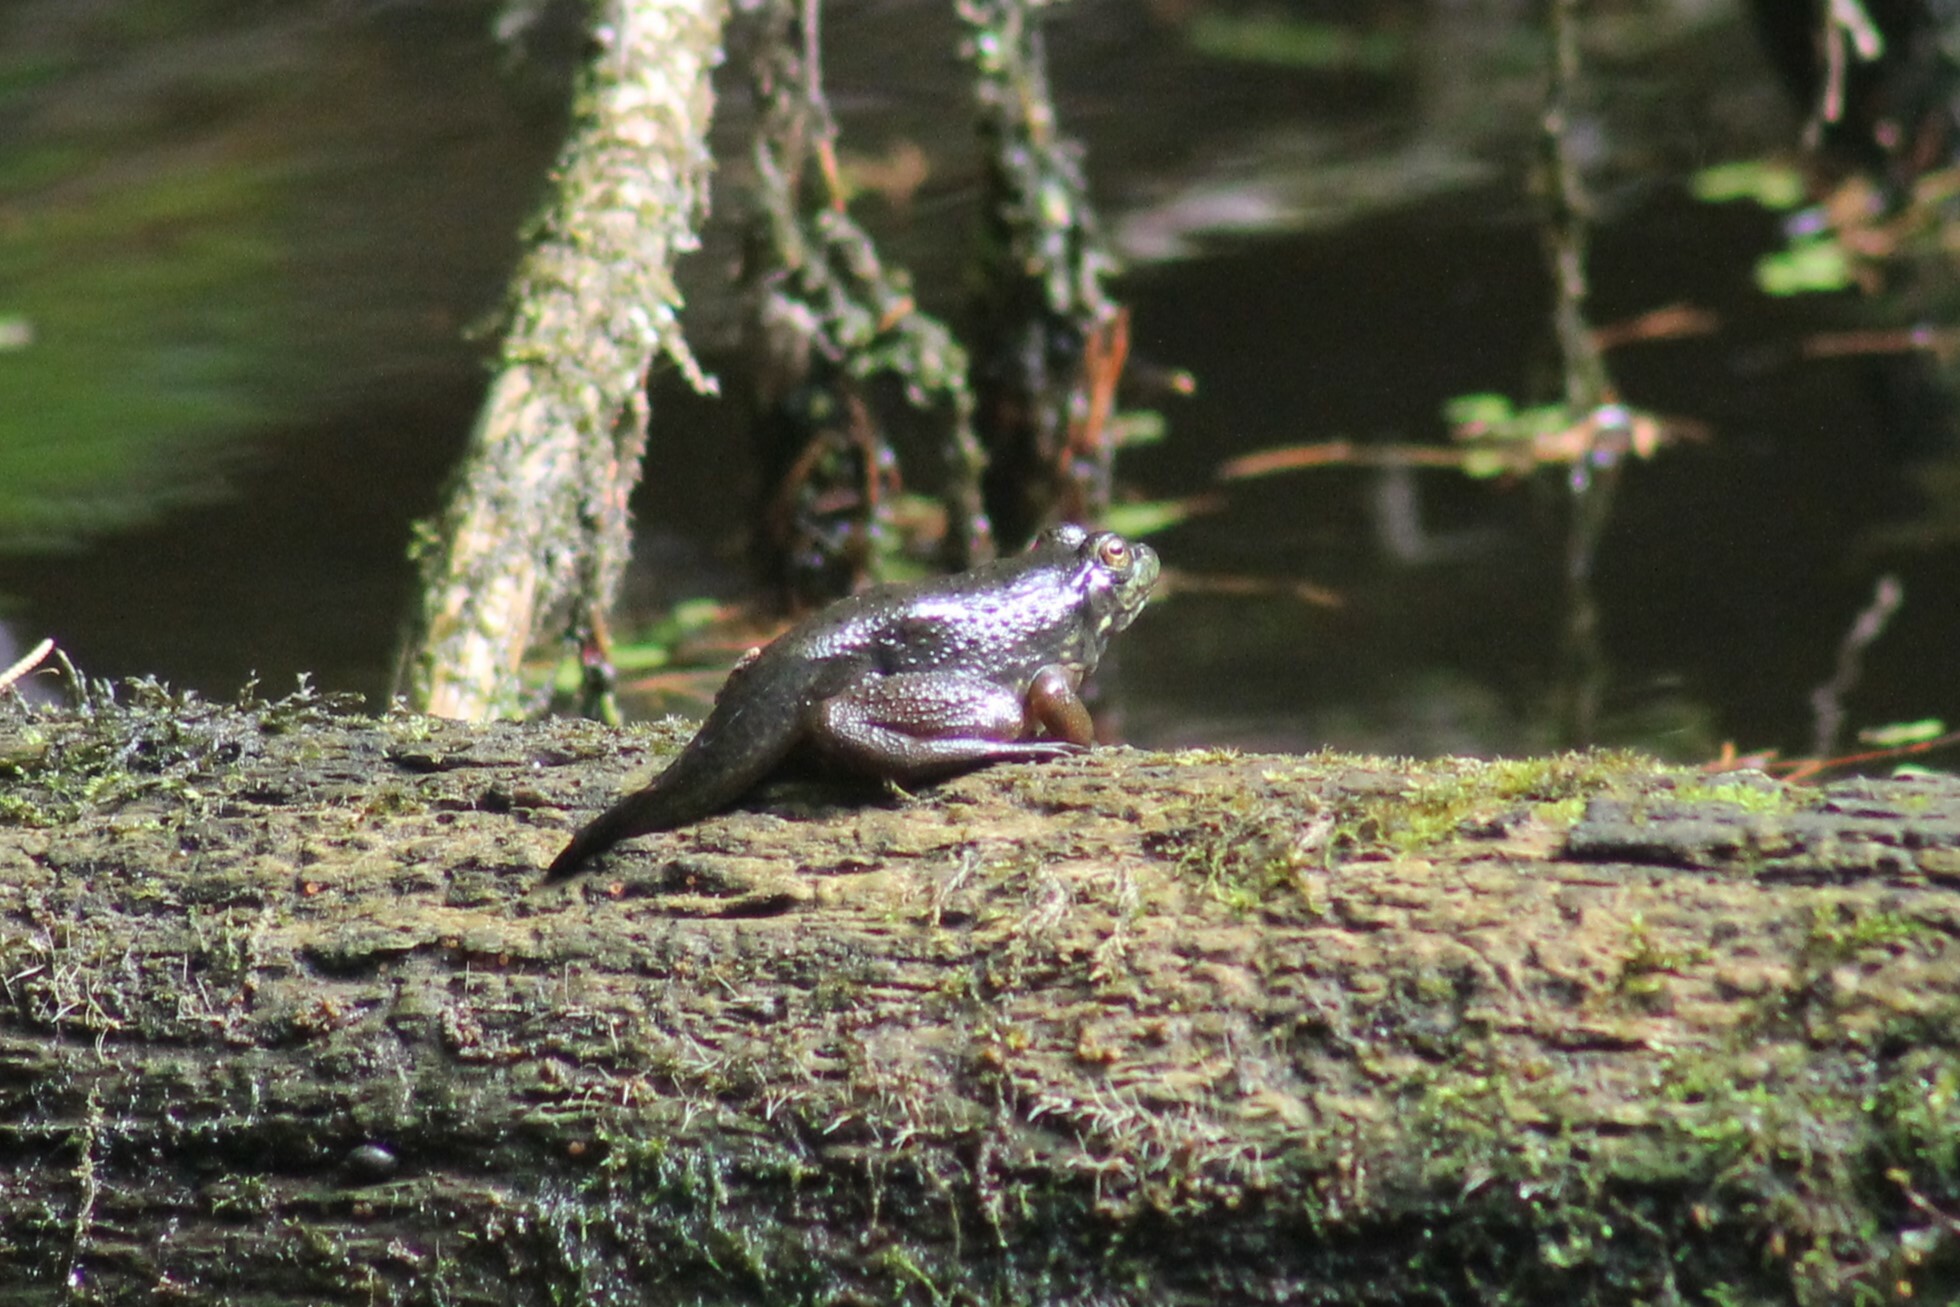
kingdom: Animalia
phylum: Chordata
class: Amphibia
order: Anura
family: Ranidae
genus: Lithobates
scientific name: Lithobates catesbeianus
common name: American bullfrog
